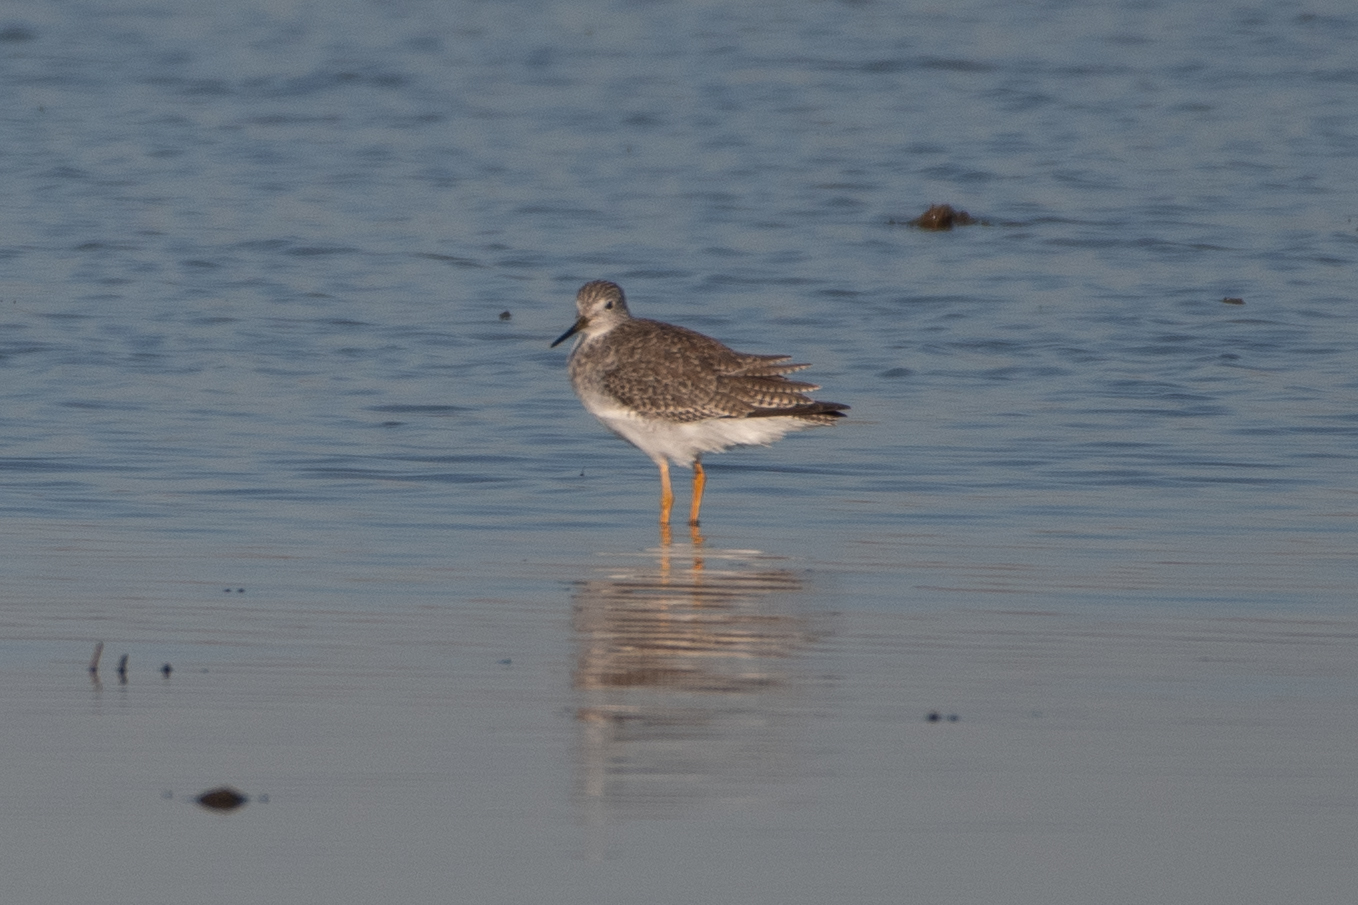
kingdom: Animalia
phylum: Chordata
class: Aves
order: Charadriiformes
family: Scolopacidae
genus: Tringa
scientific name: Tringa melanoleuca
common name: Greater yellowlegs
